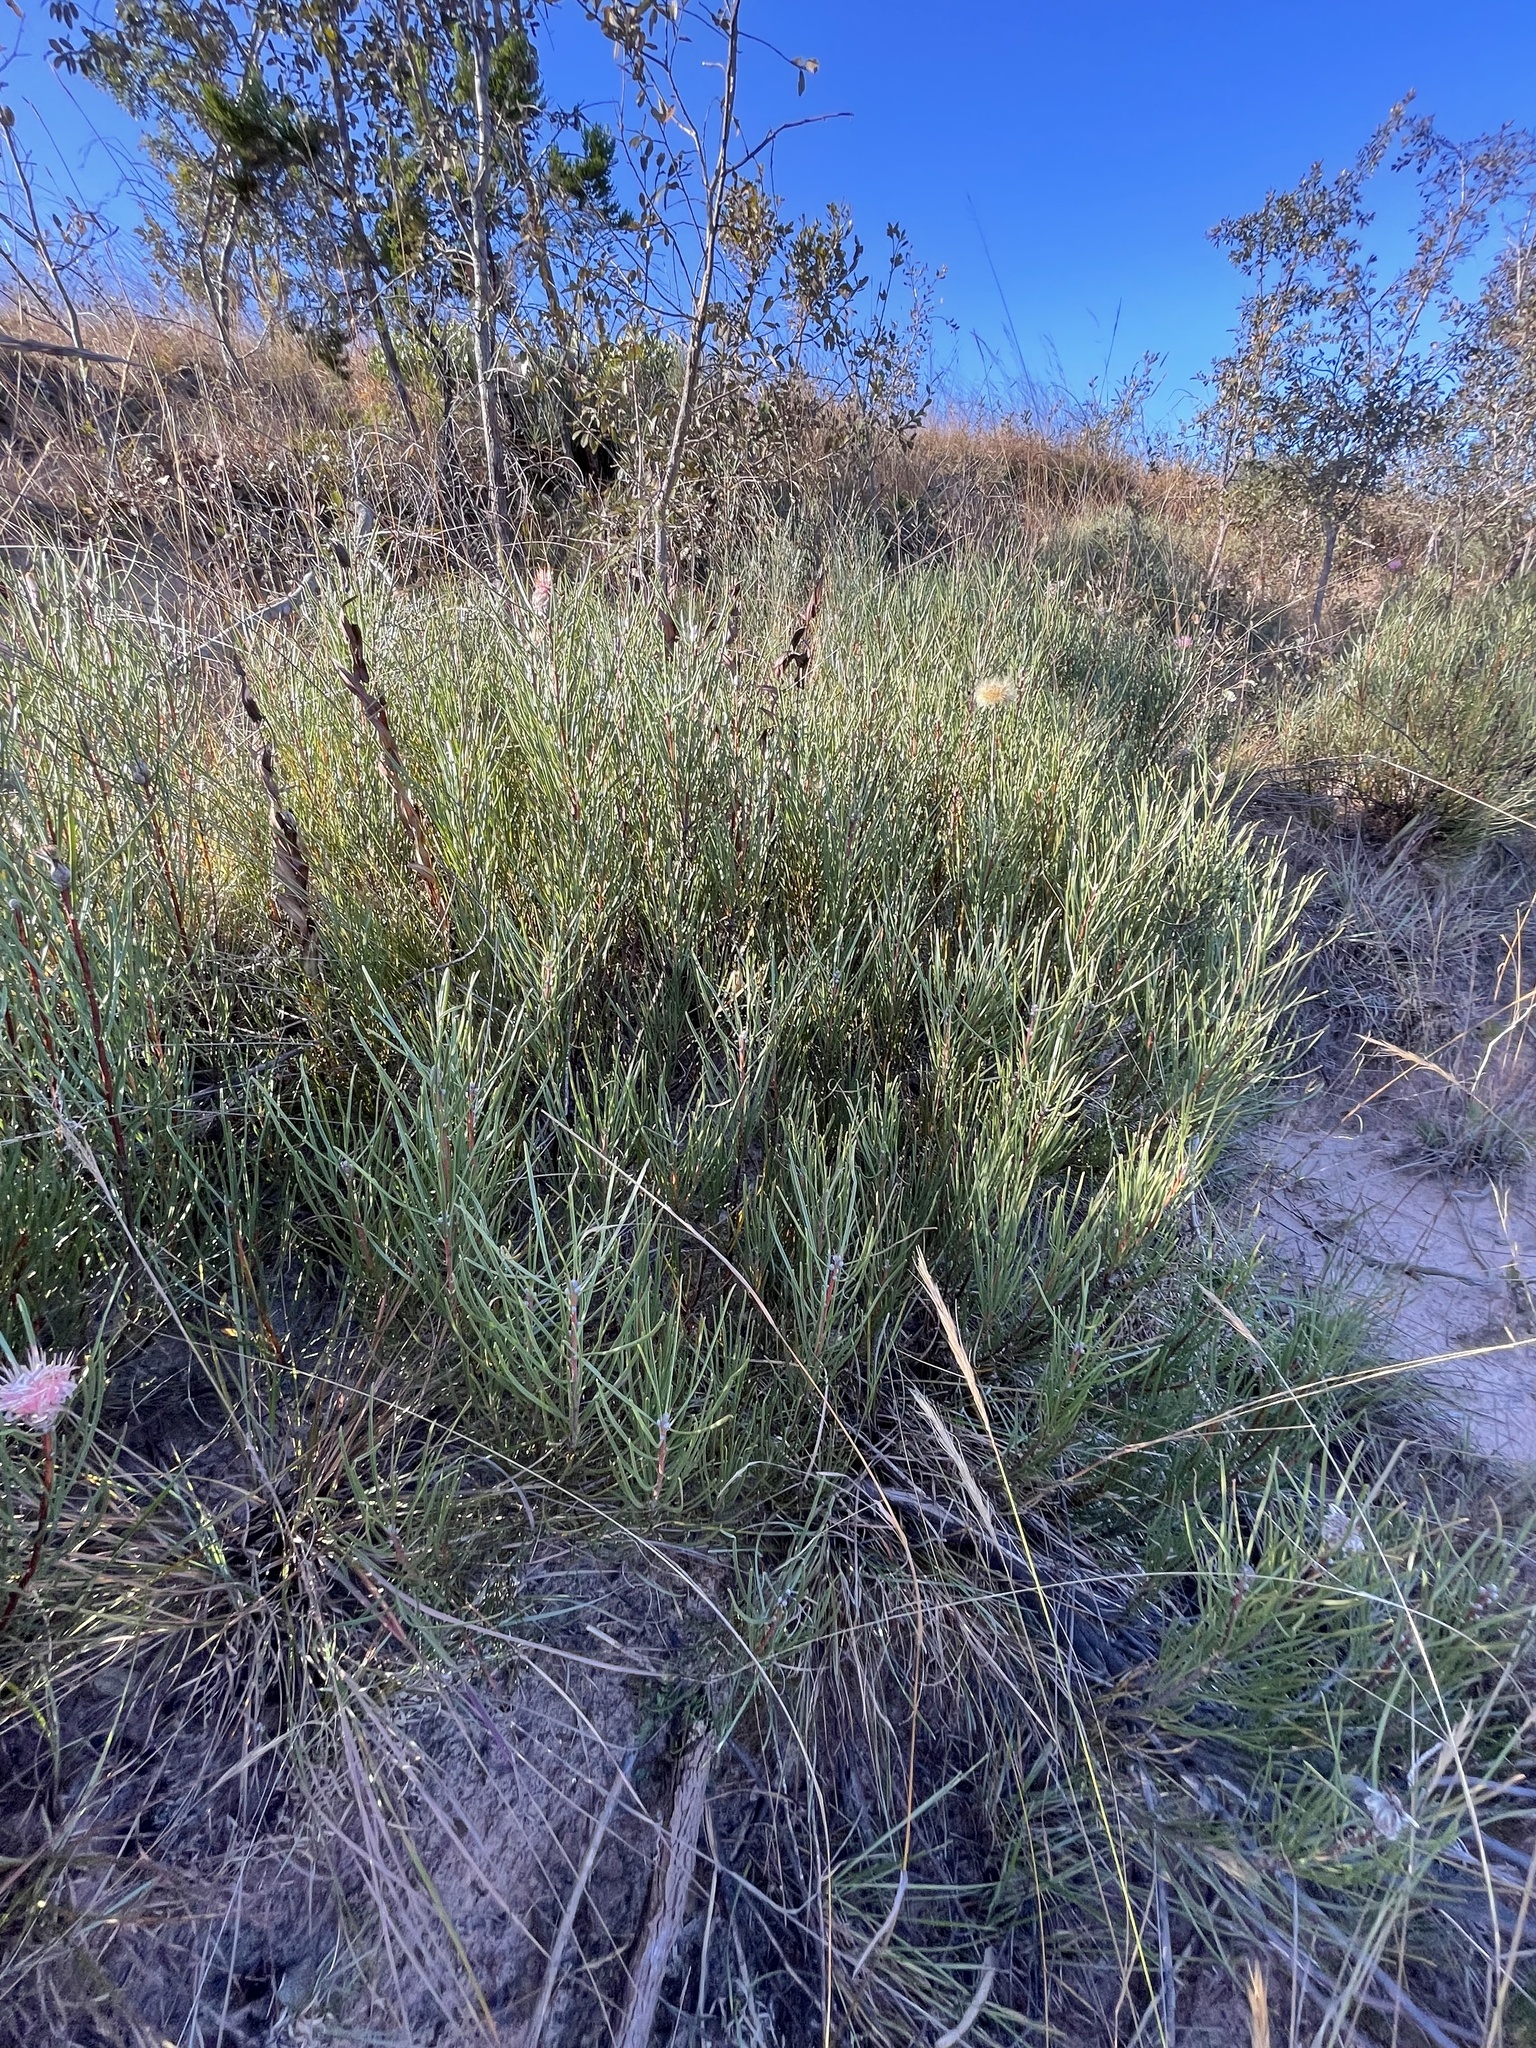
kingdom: Plantae
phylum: Tracheophyta
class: Magnoliopsida
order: Proteales
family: Proteaceae
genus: Protea
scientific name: Protea baumii
